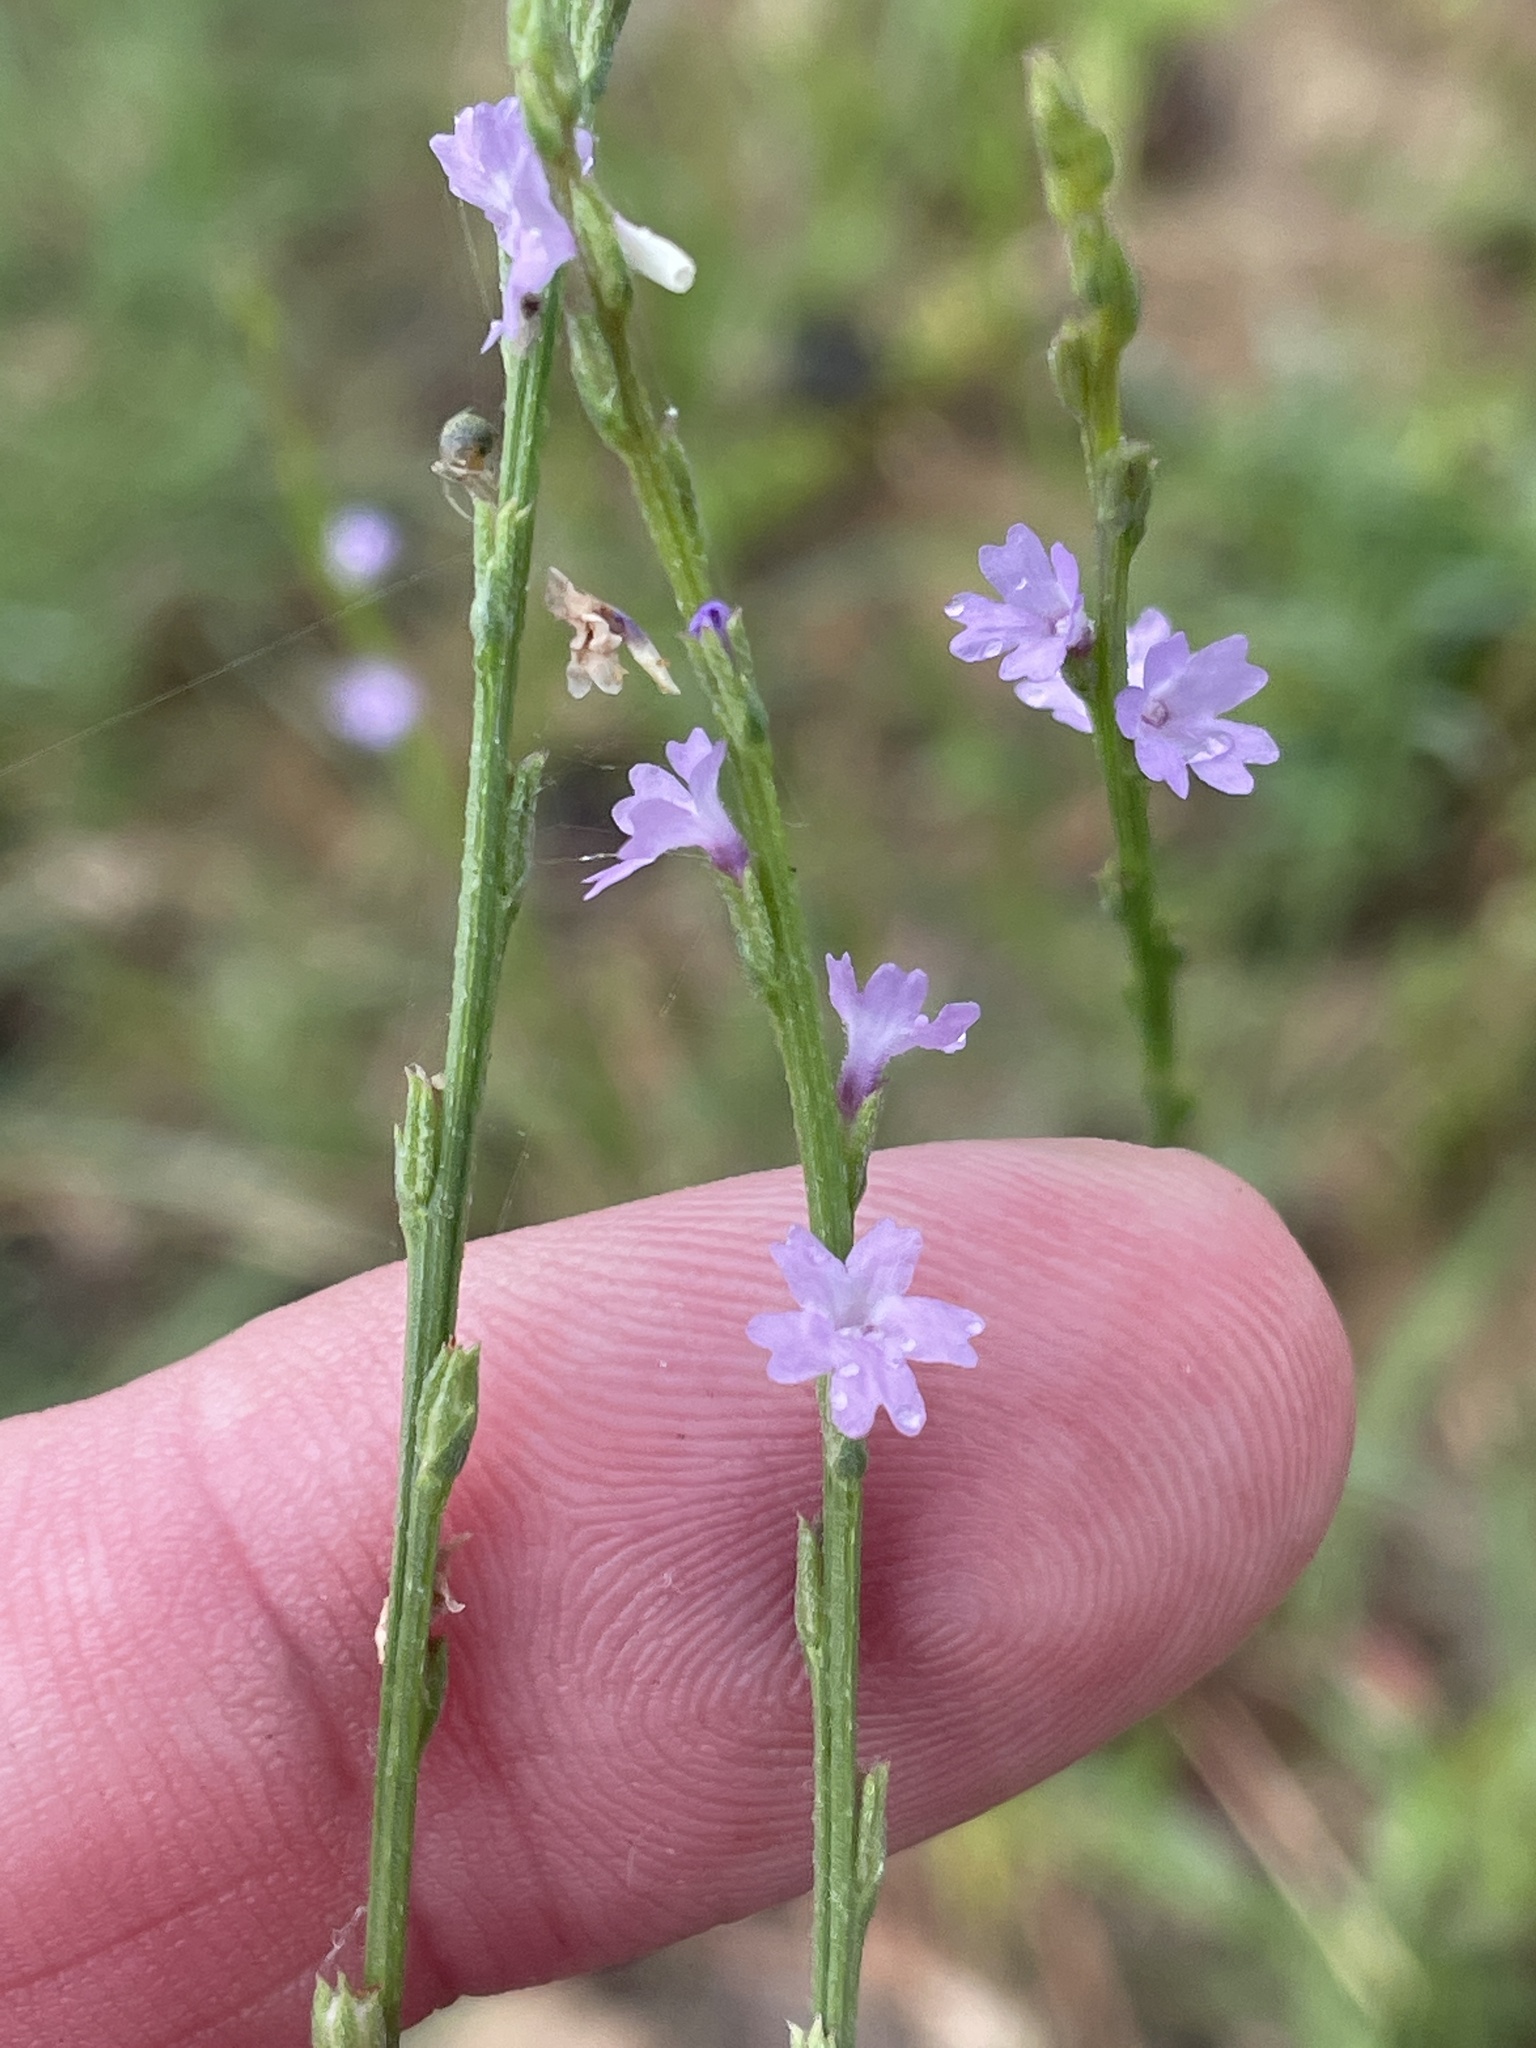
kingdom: Plantae
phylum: Tracheophyta
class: Magnoliopsida
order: Lamiales
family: Verbenaceae
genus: Verbena
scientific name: Verbena halei
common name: Texas vervain
